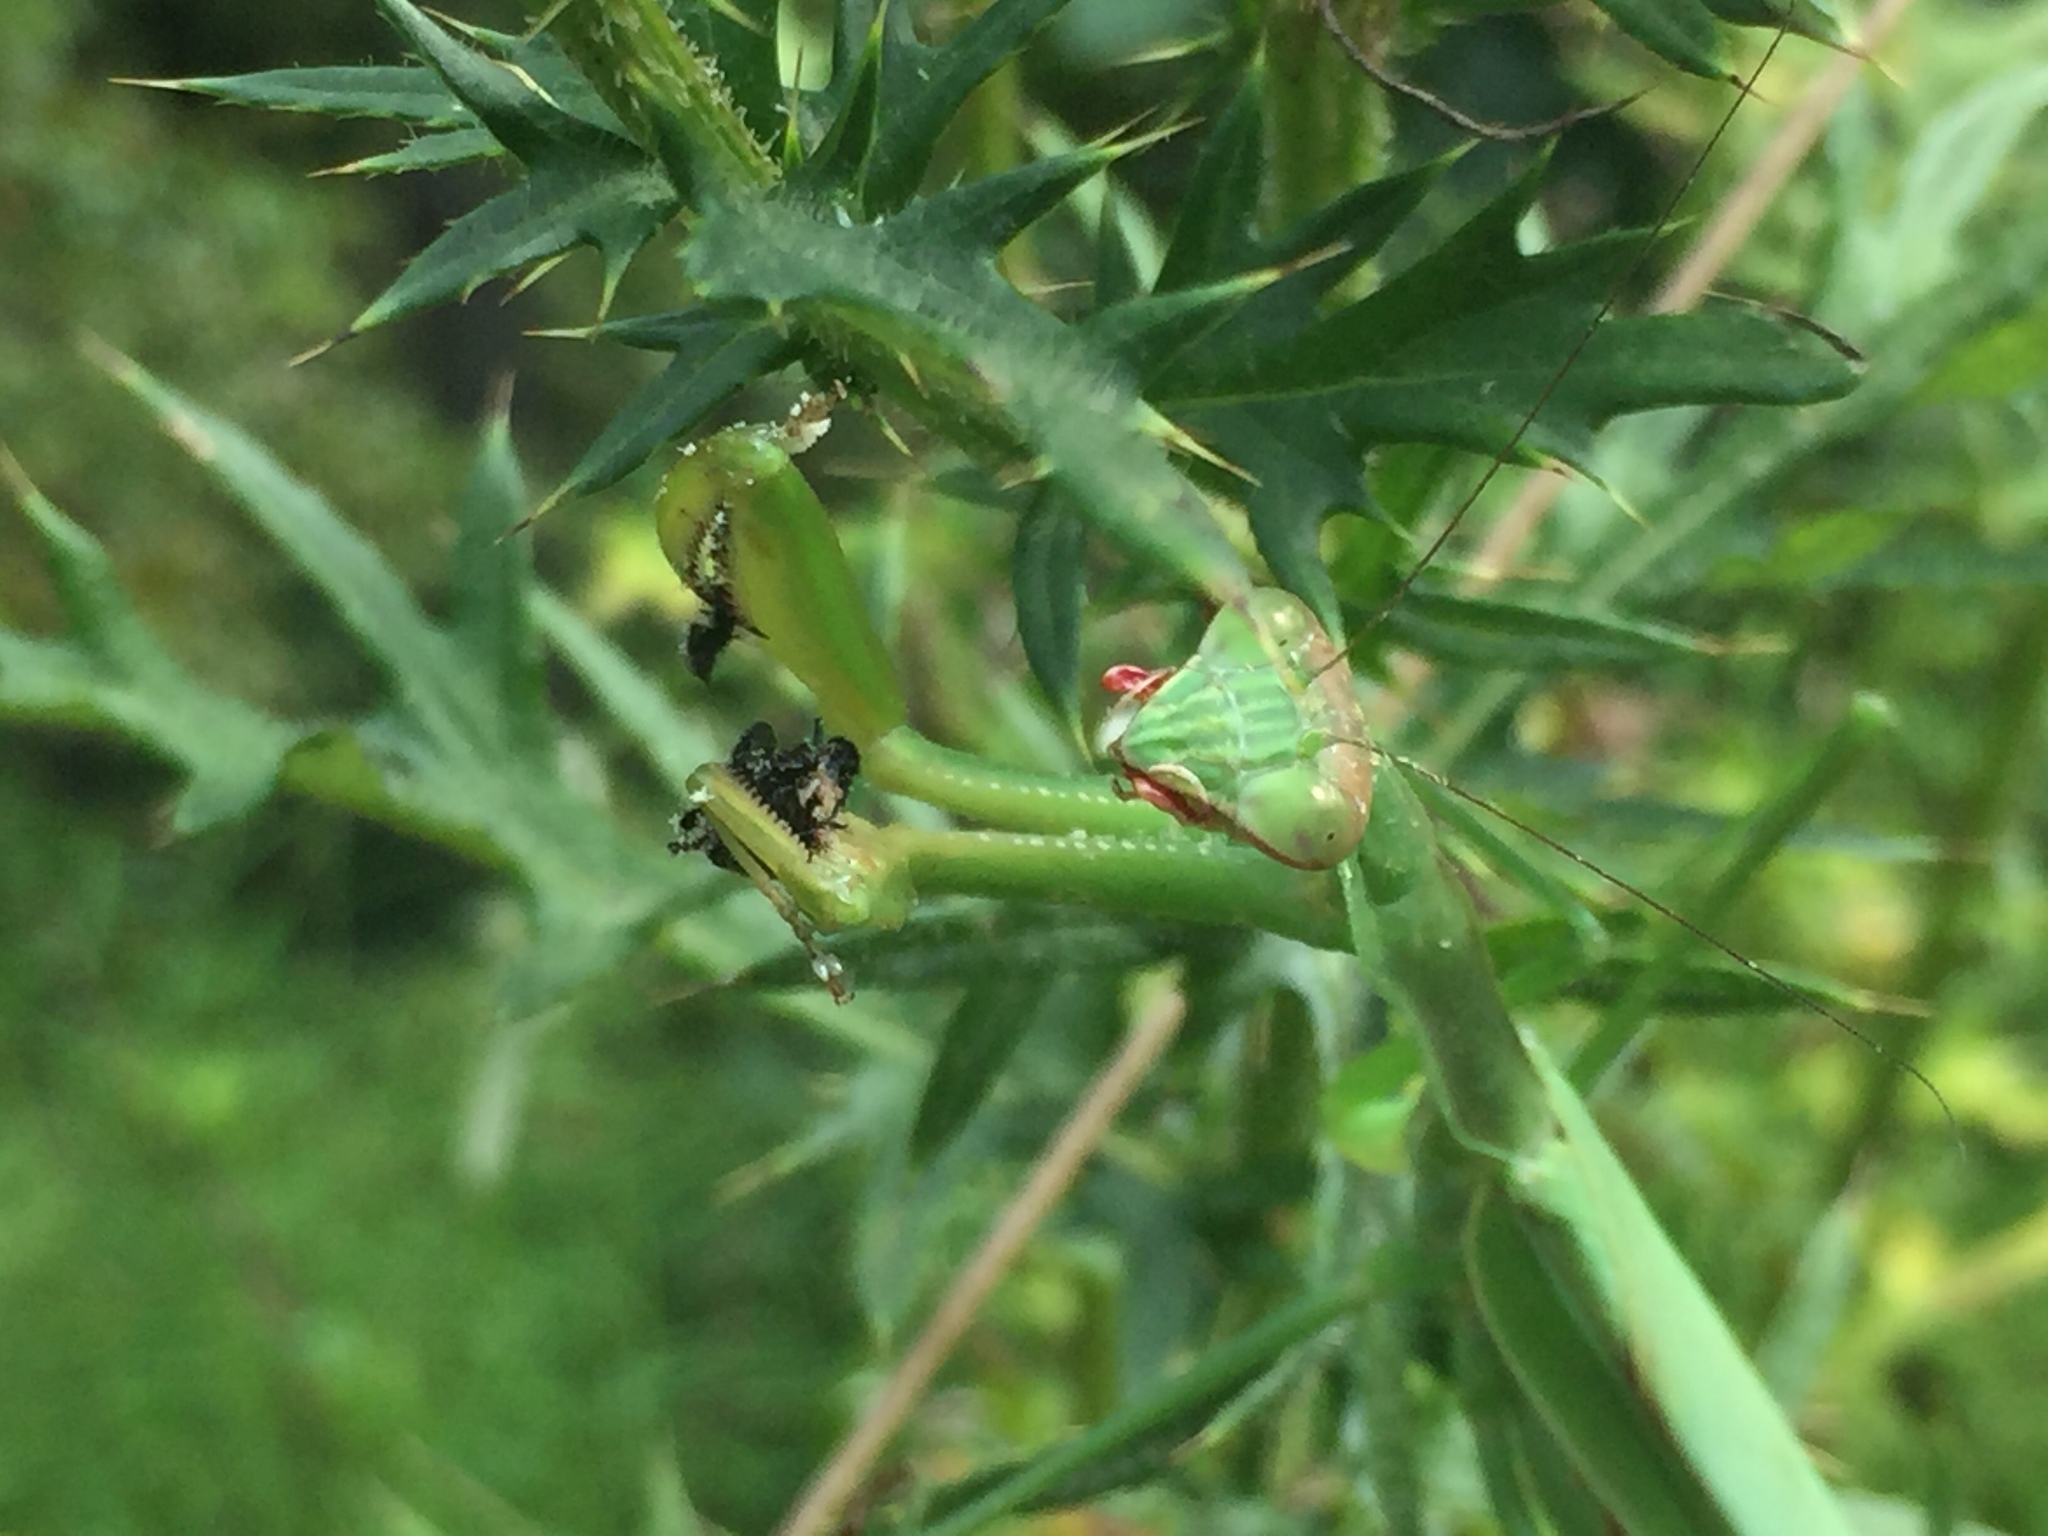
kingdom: Animalia
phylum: Arthropoda
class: Insecta
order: Mantodea
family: Mantidae
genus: Tenodera
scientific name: Tenodera sinensis
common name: Chinese mantis
